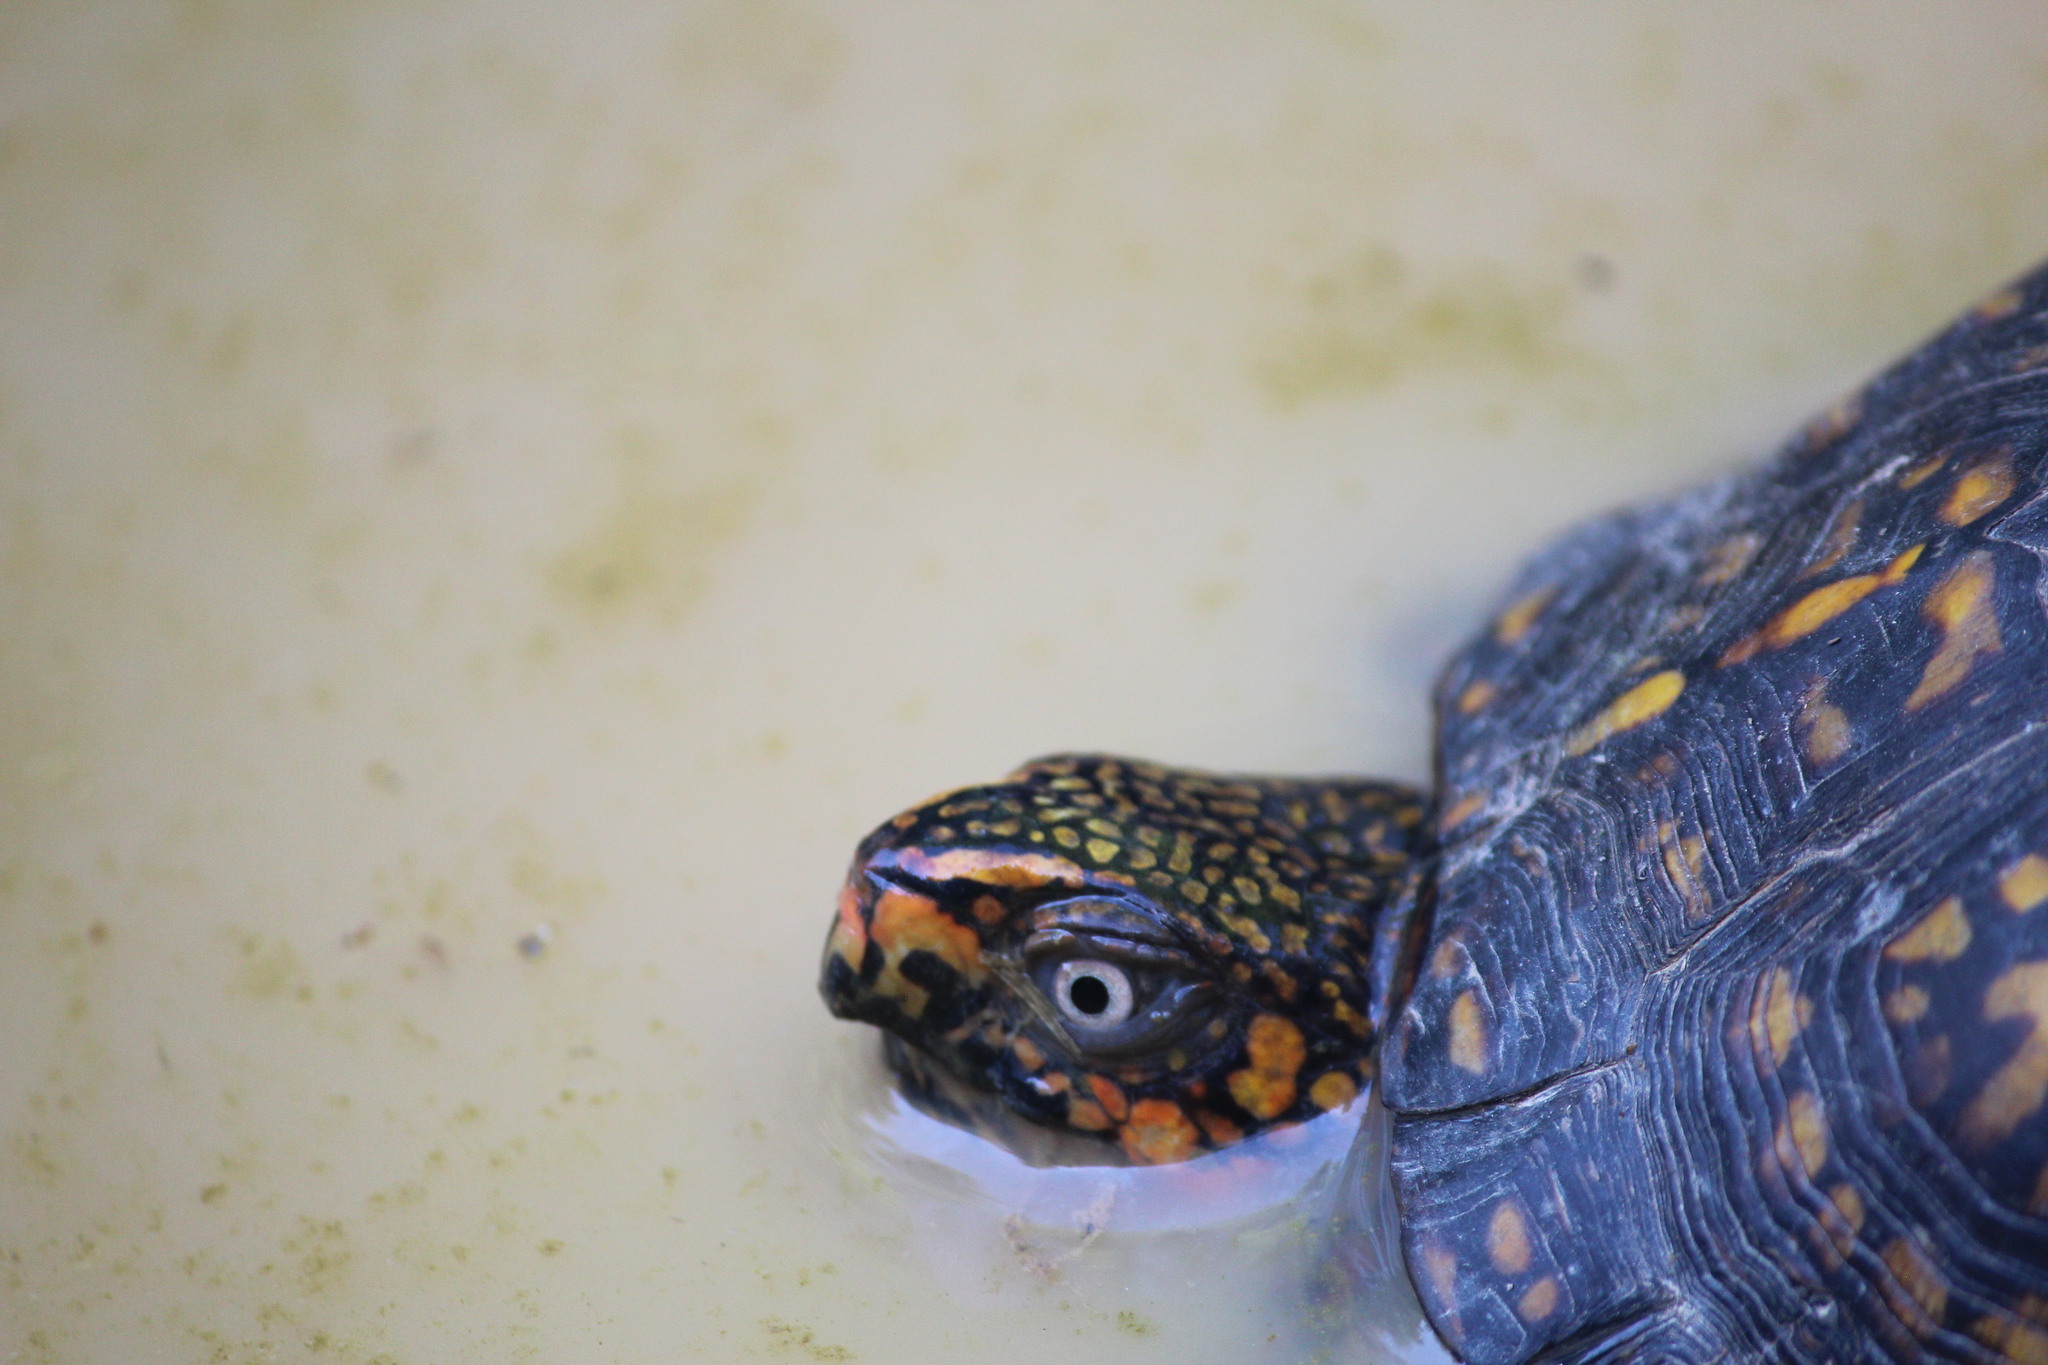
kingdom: Animalia
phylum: Chordata
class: Testudines
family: Emydidae
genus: Terrapene
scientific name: Terrapene carolina
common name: Common box turtle
